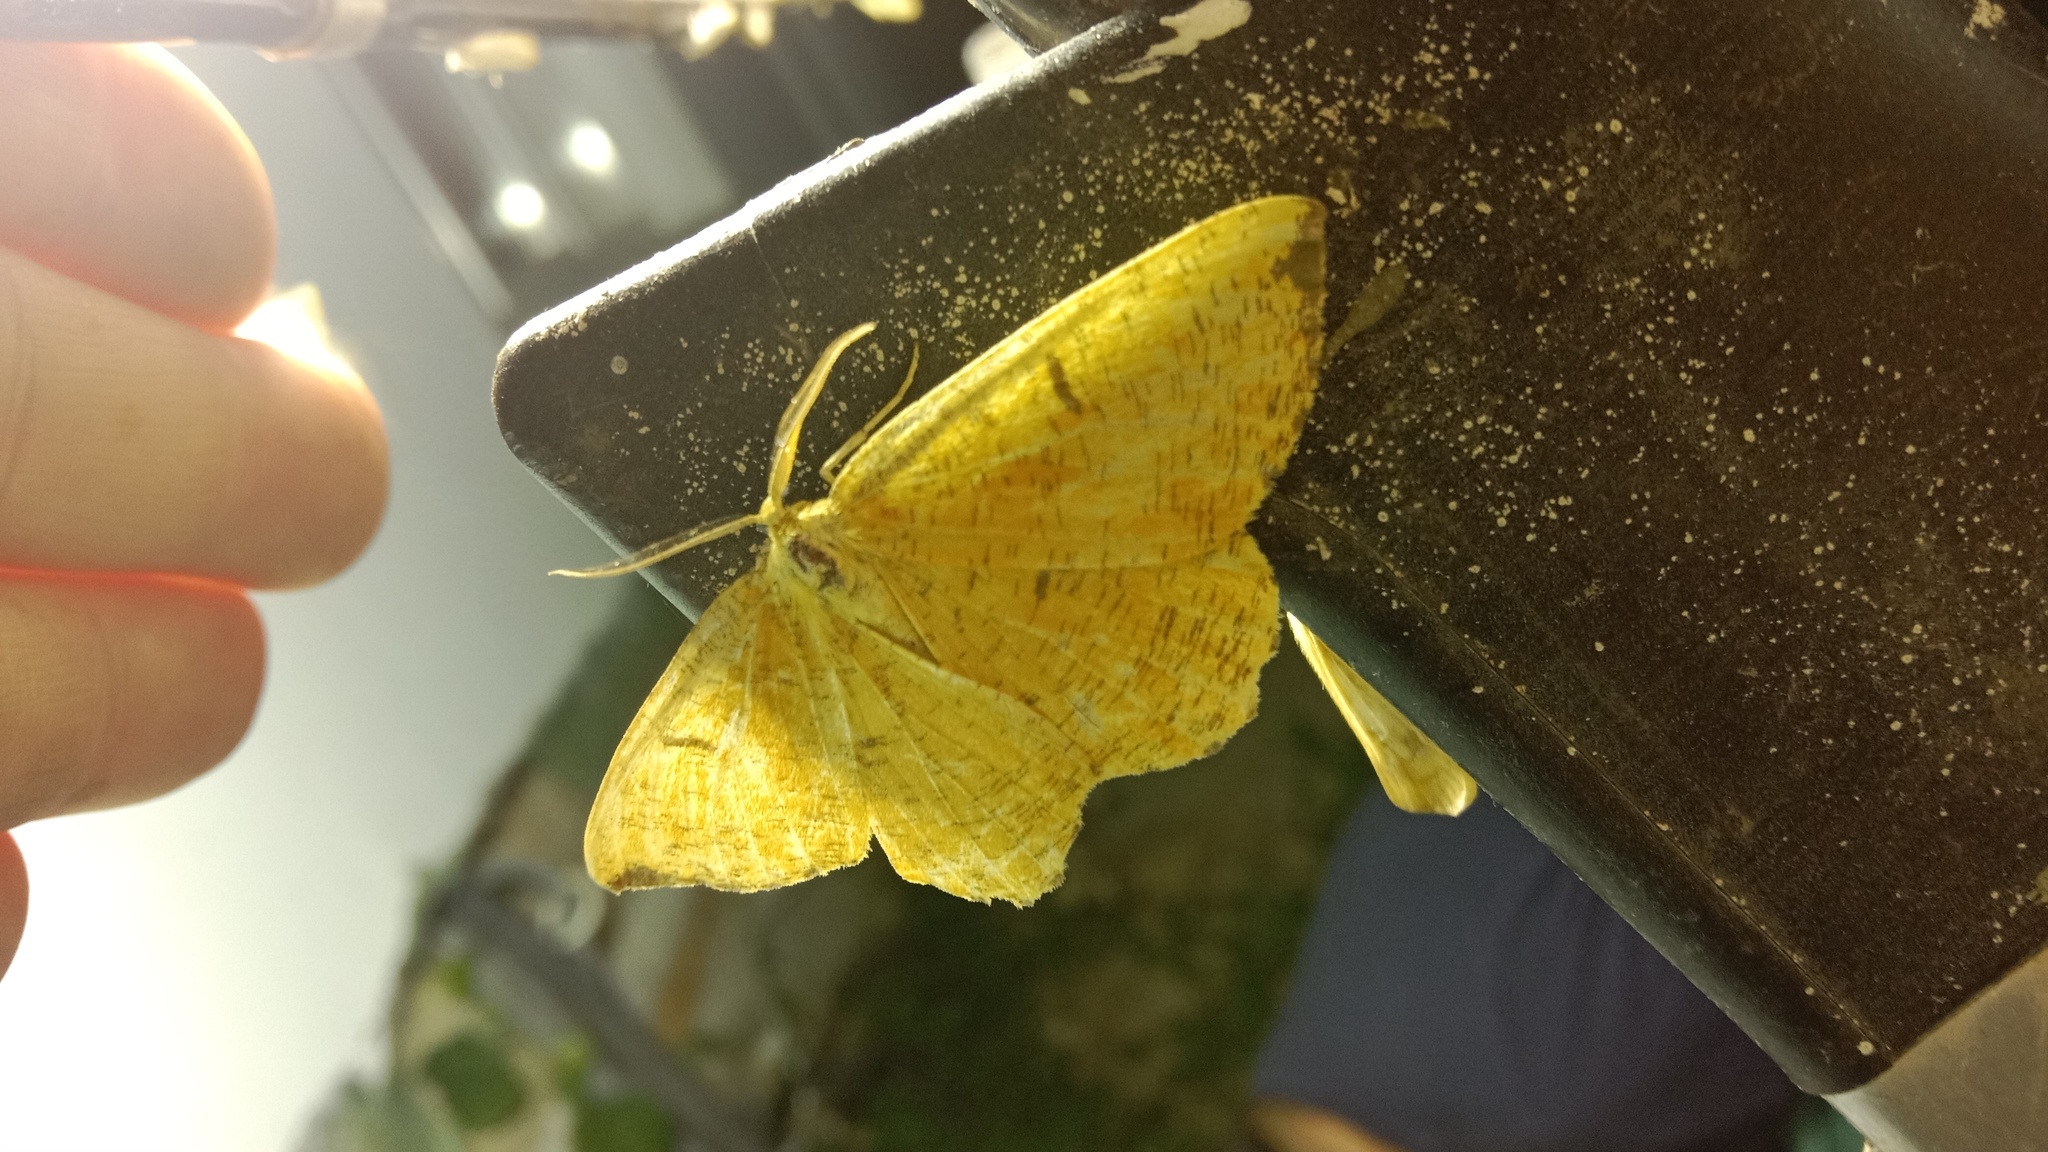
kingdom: Animalia
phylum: Arthropoda
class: Insecta
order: Lepidoptera
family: Geometridae
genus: Angerona
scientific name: Angerona prunaria
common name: Orange moth
